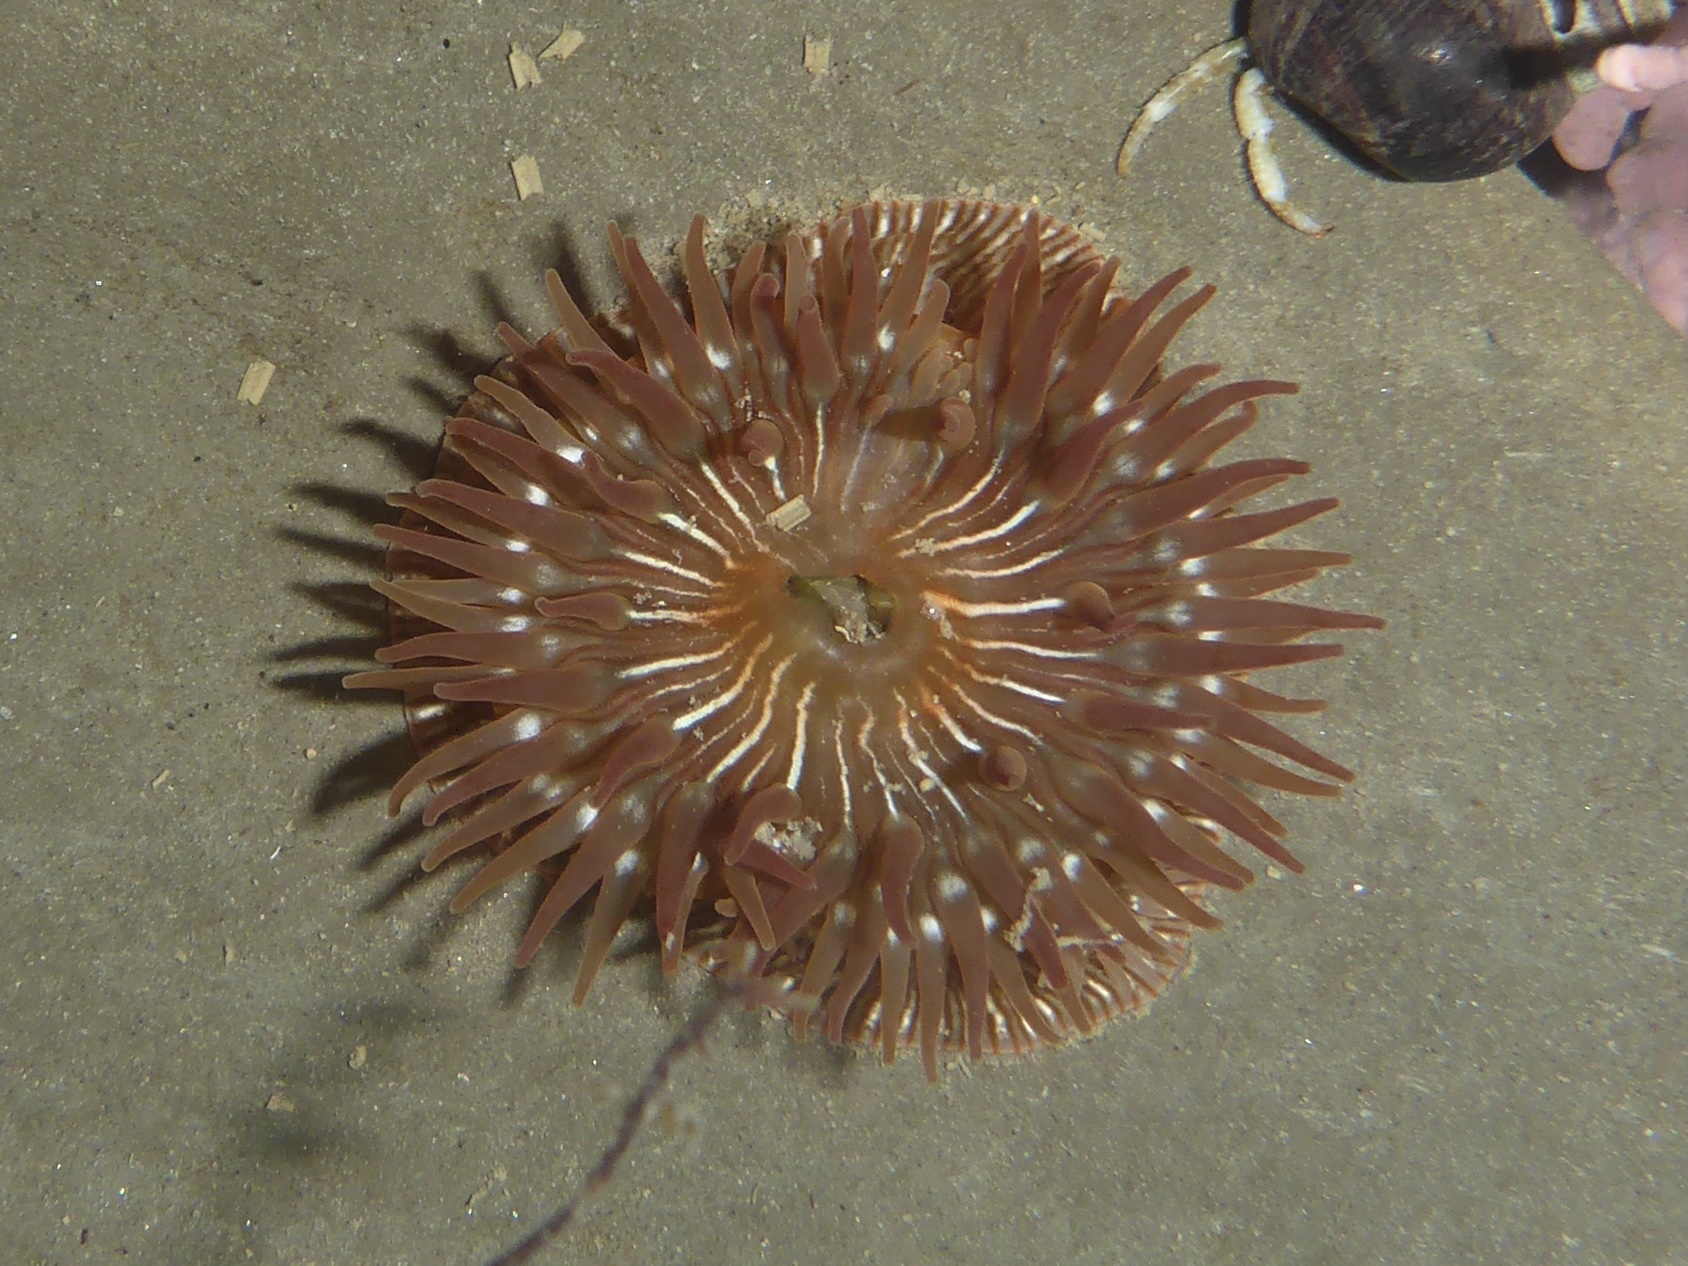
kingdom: Animalia
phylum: Cnidaria
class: Anthozoa
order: Actiniaria
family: Actiniidae
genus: Epiactis
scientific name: Epiactis prolifera
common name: Brooding anemone
